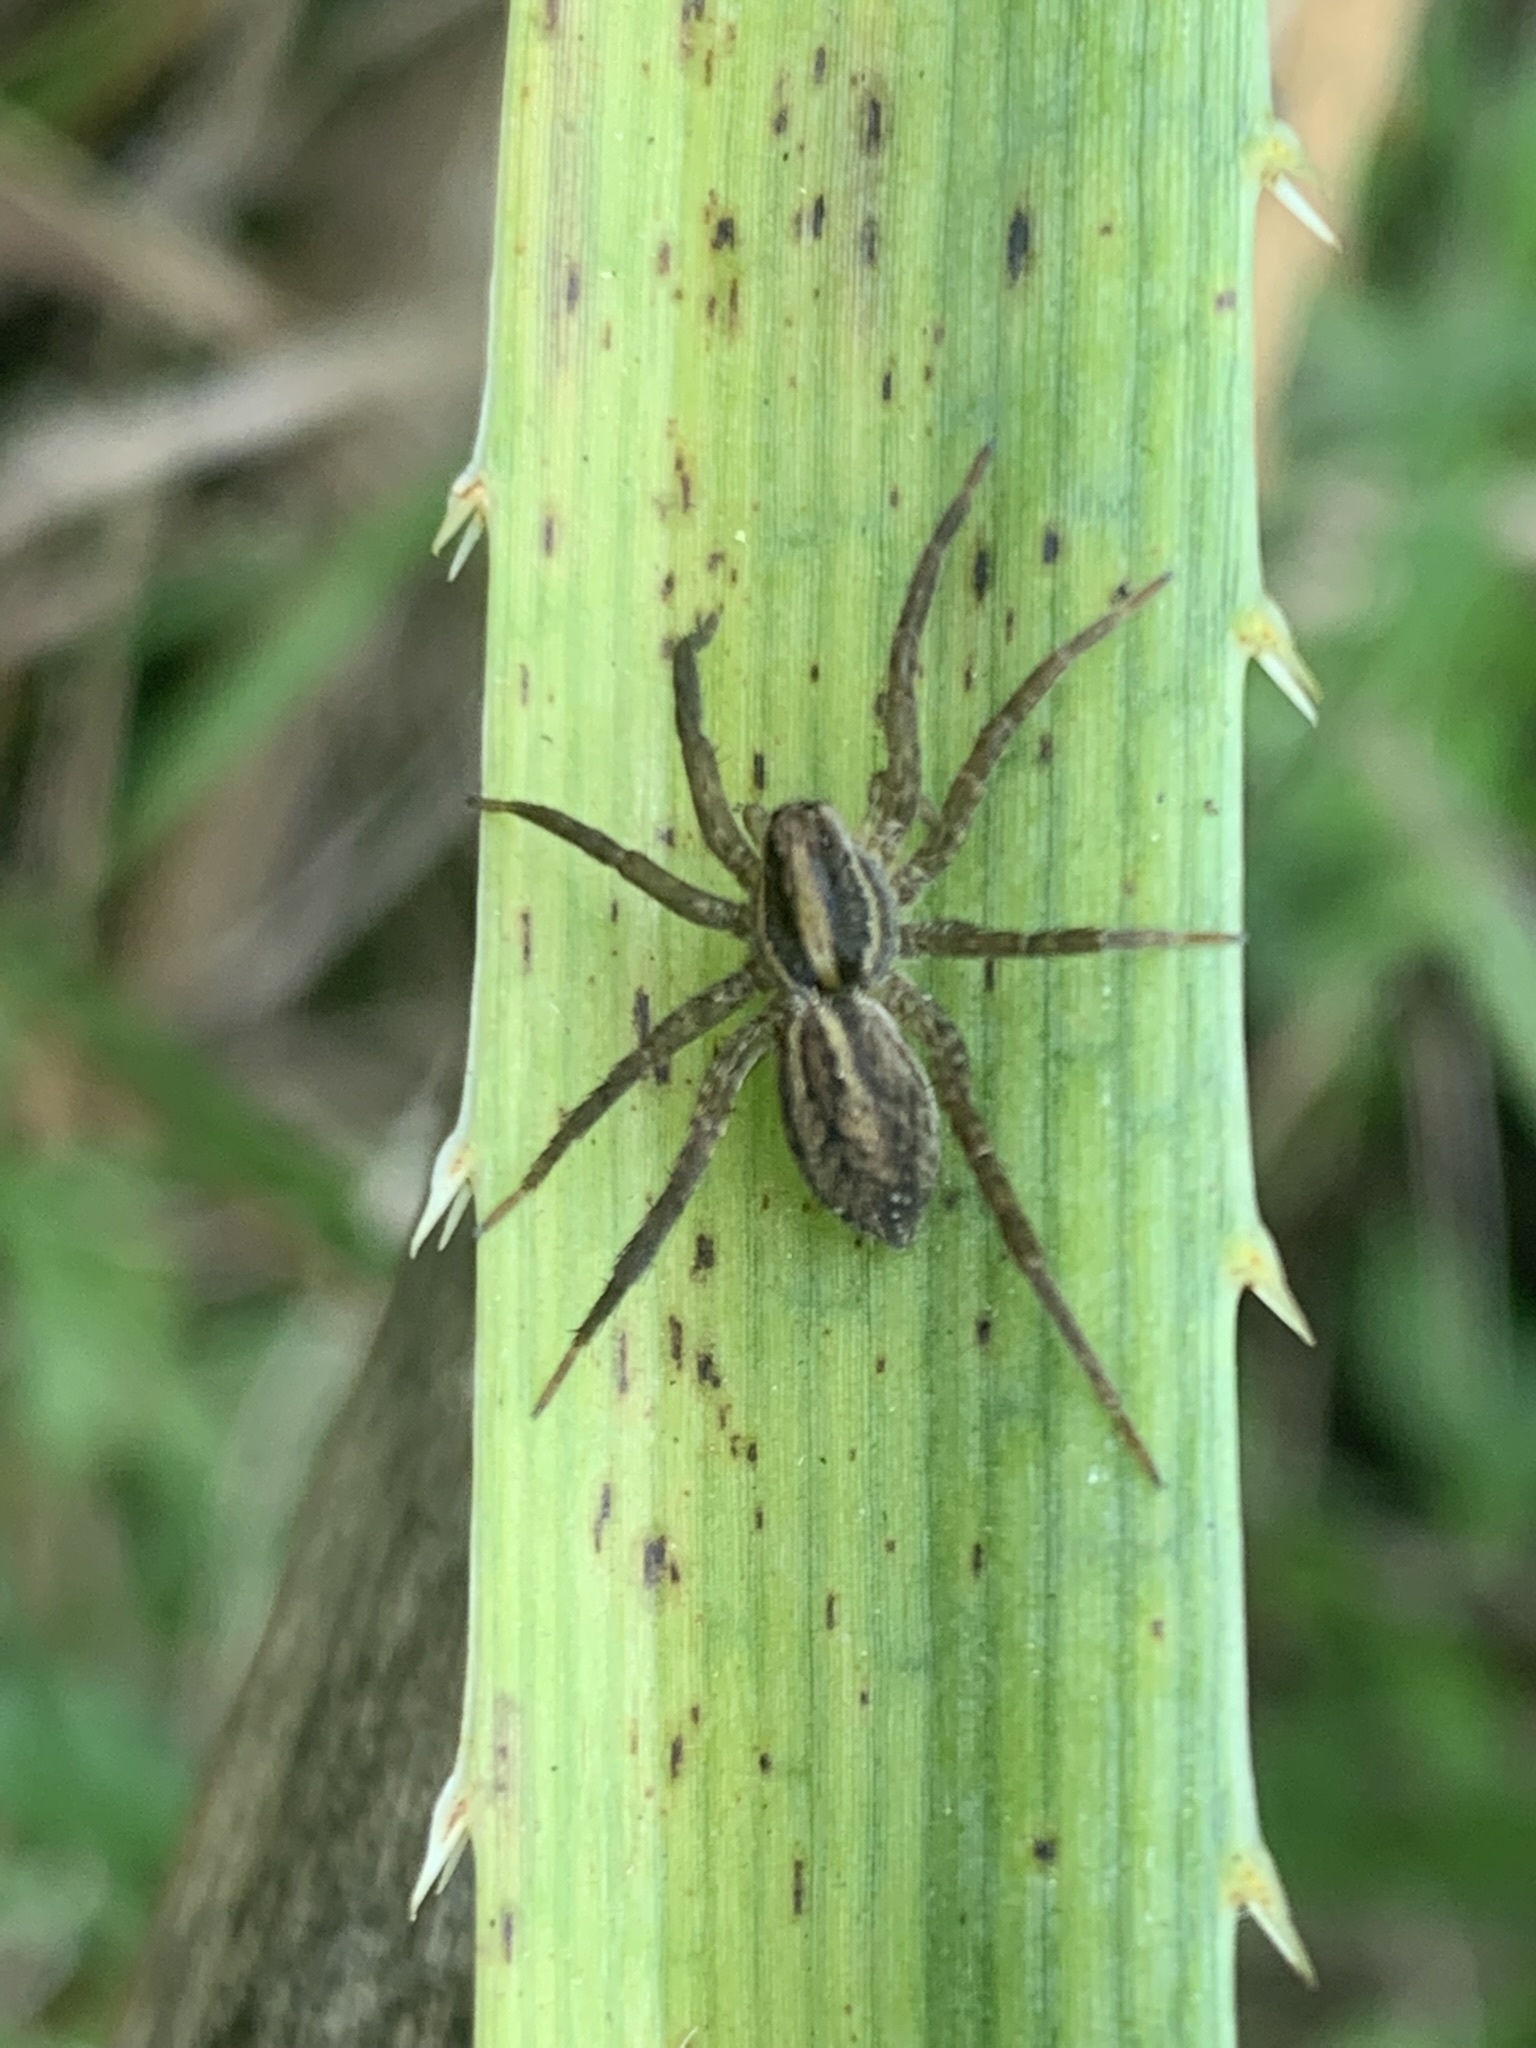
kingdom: Animalia
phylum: Arthropoda
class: Arachnida
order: Araneae
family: Lycosidae
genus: Alopecosa
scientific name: Alopecosa moesta
